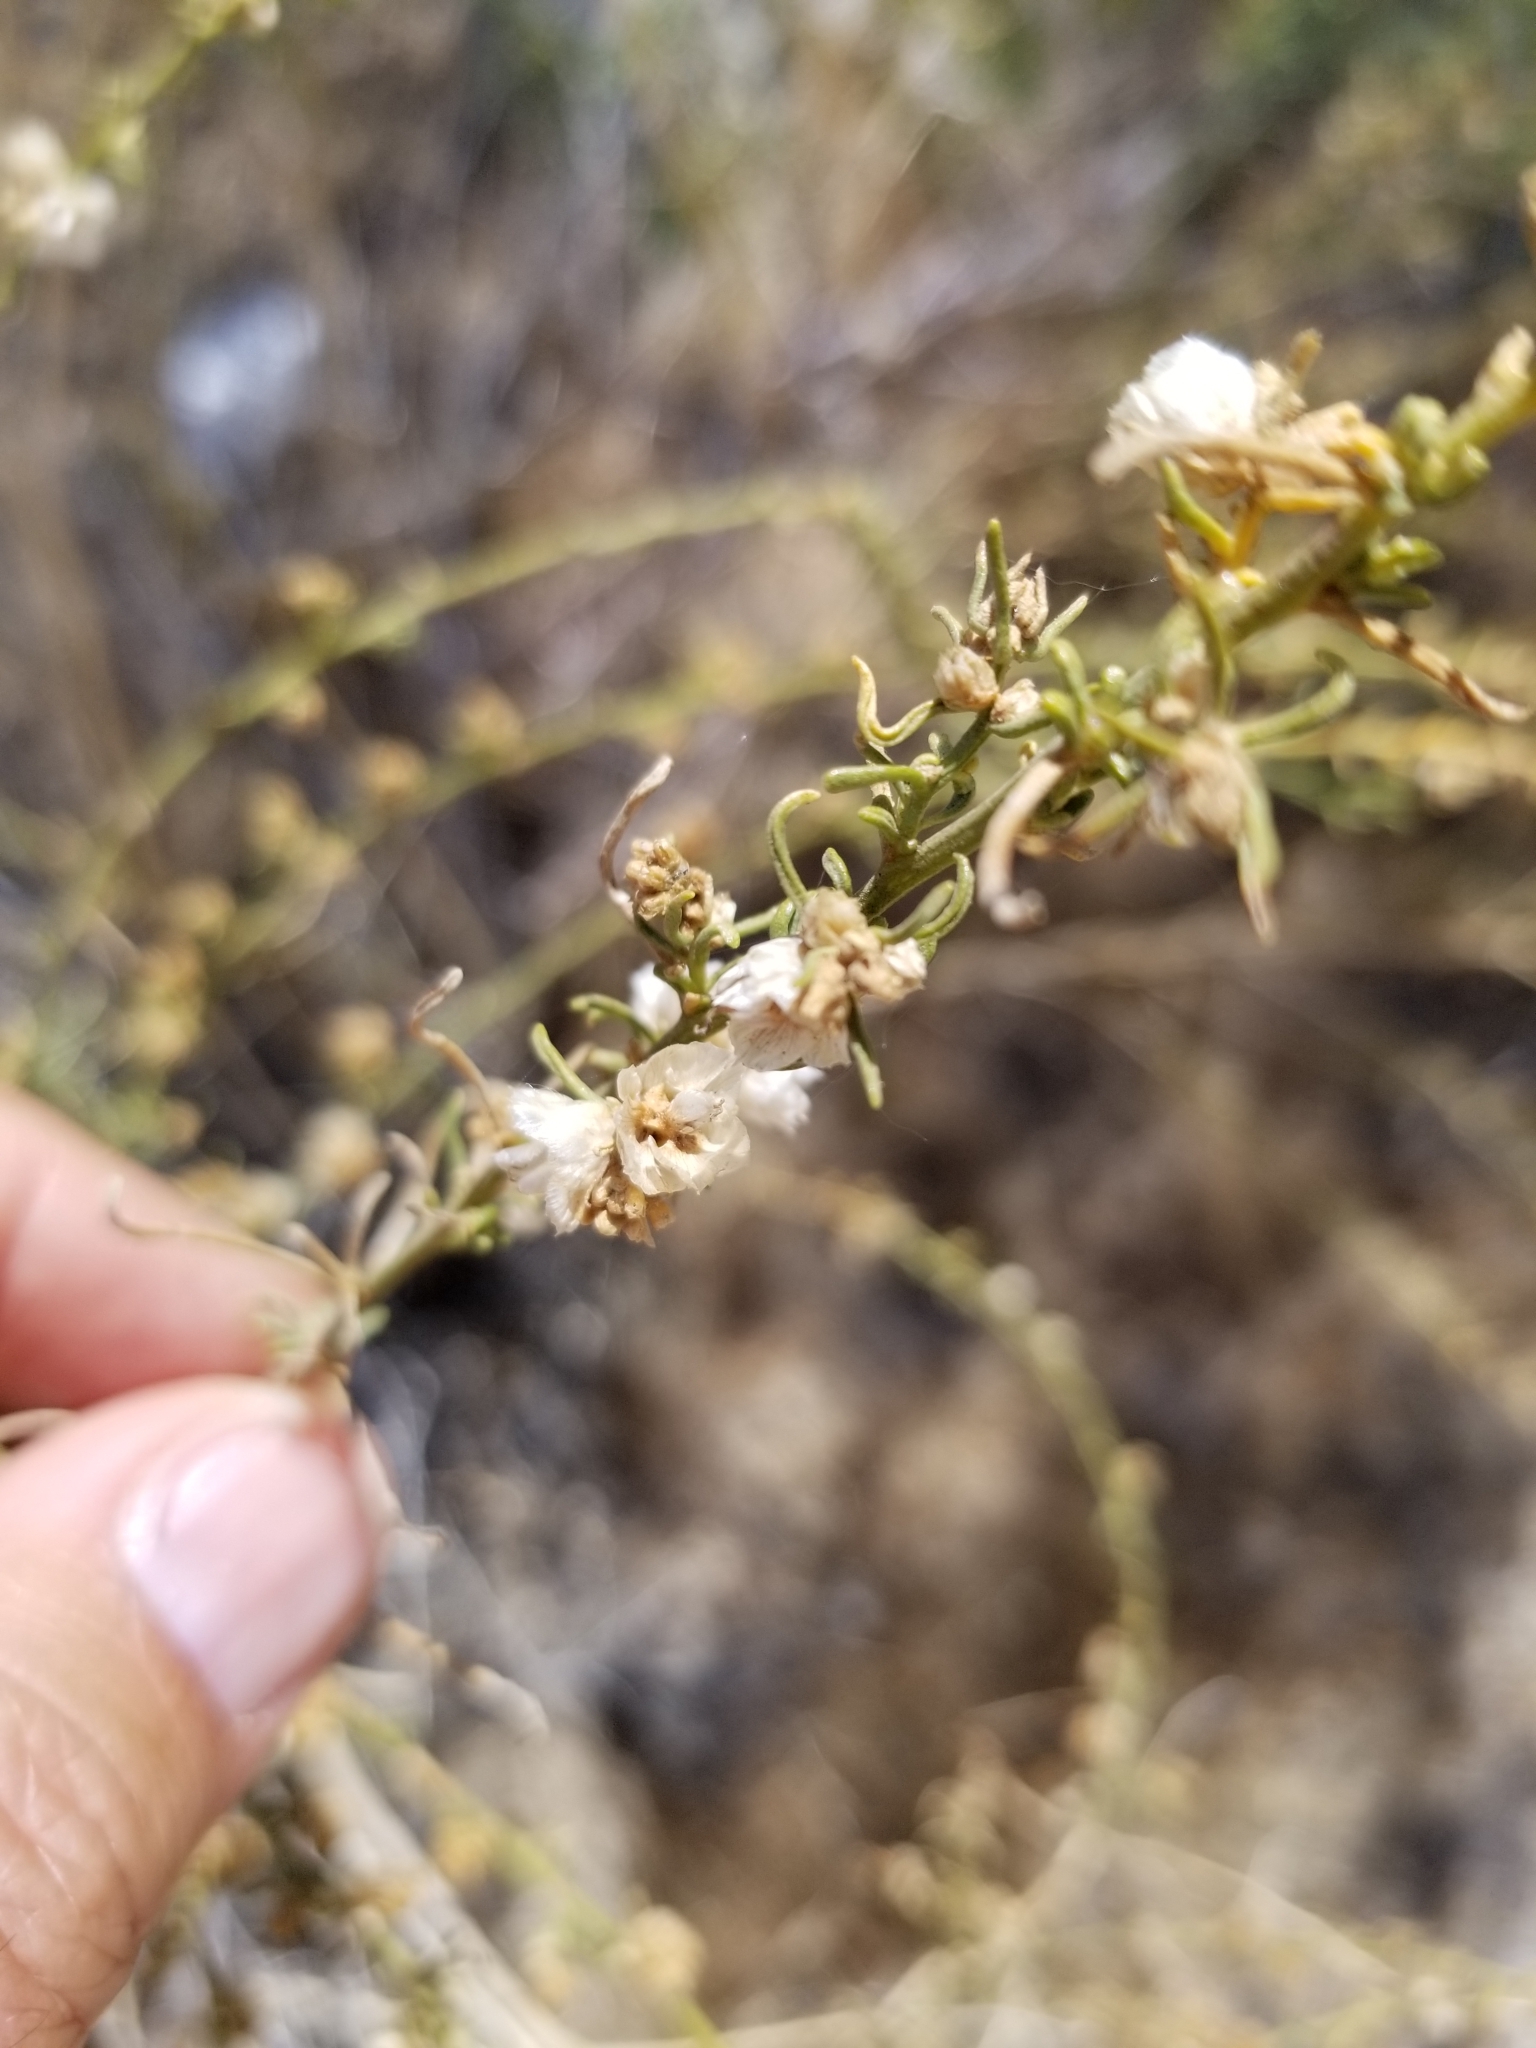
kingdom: Plantae
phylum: Tracheophyta
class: Magnoliopsida
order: Asterales
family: Asteraceae
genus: Ambrosia
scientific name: Ambrosia salsola
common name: Burrobrush
